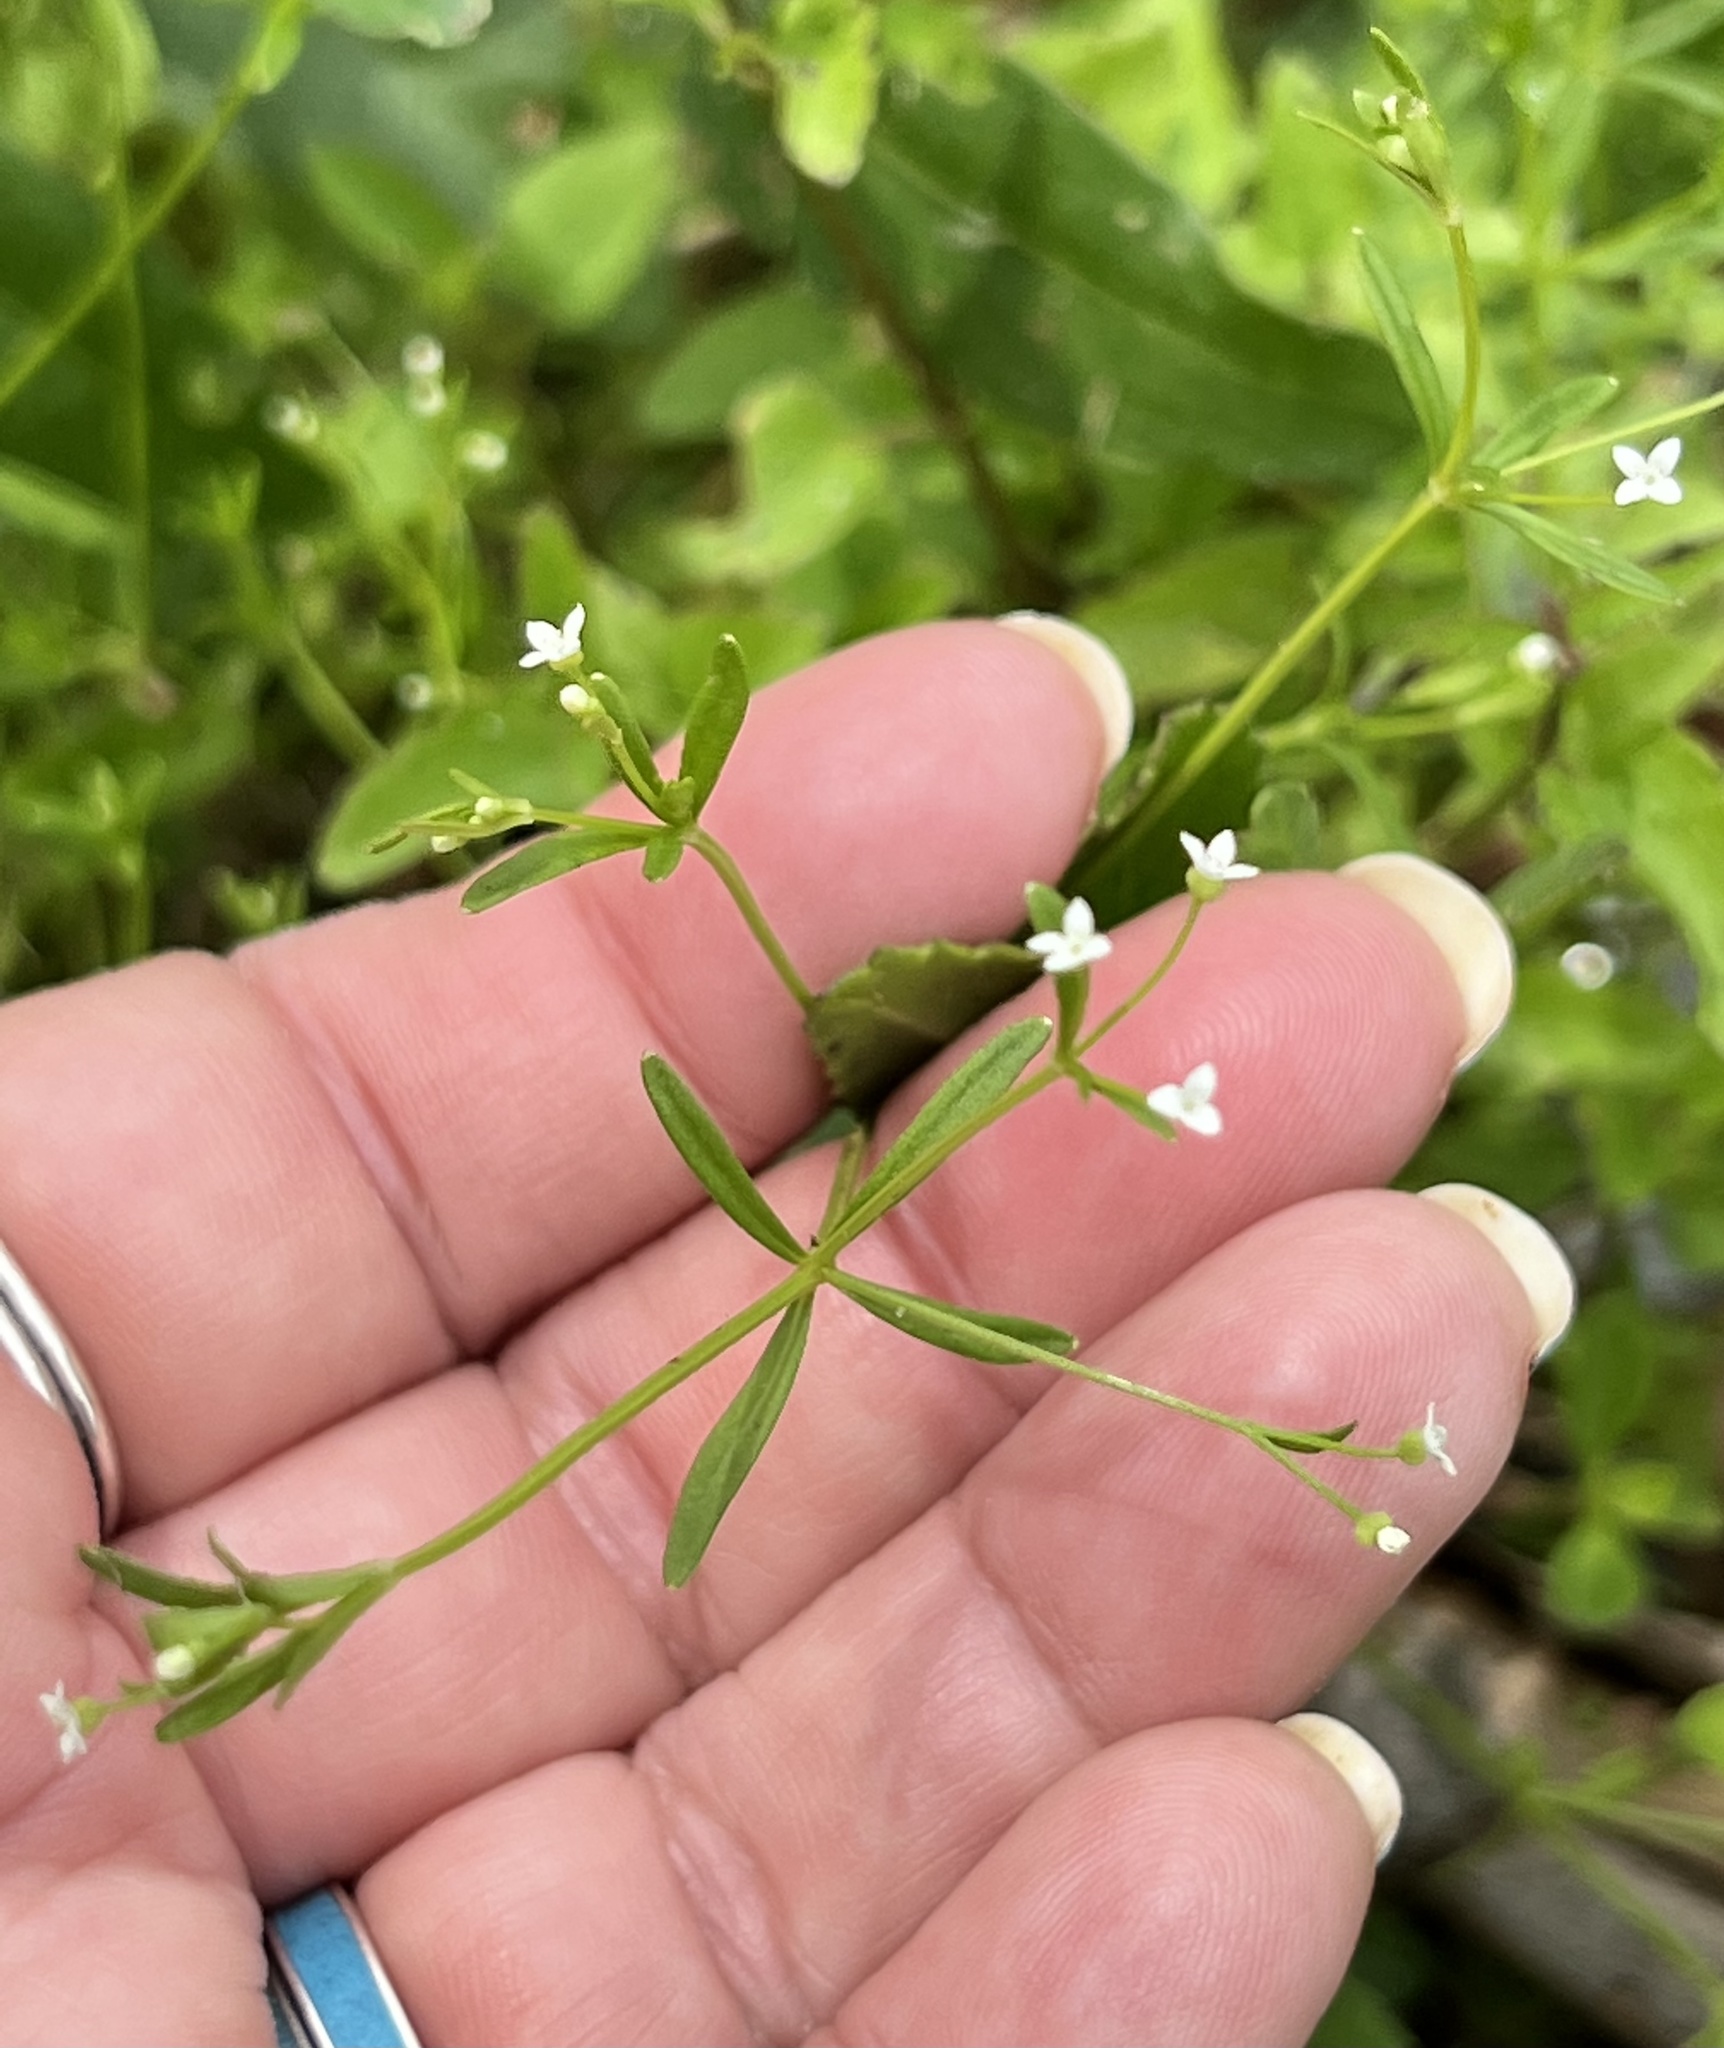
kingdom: Plantae
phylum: Tracheophyta
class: Magnoliopsida
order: Gentianales
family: Rubiaceae
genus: Galium
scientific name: Galium tinctorium
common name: Bedstraw
